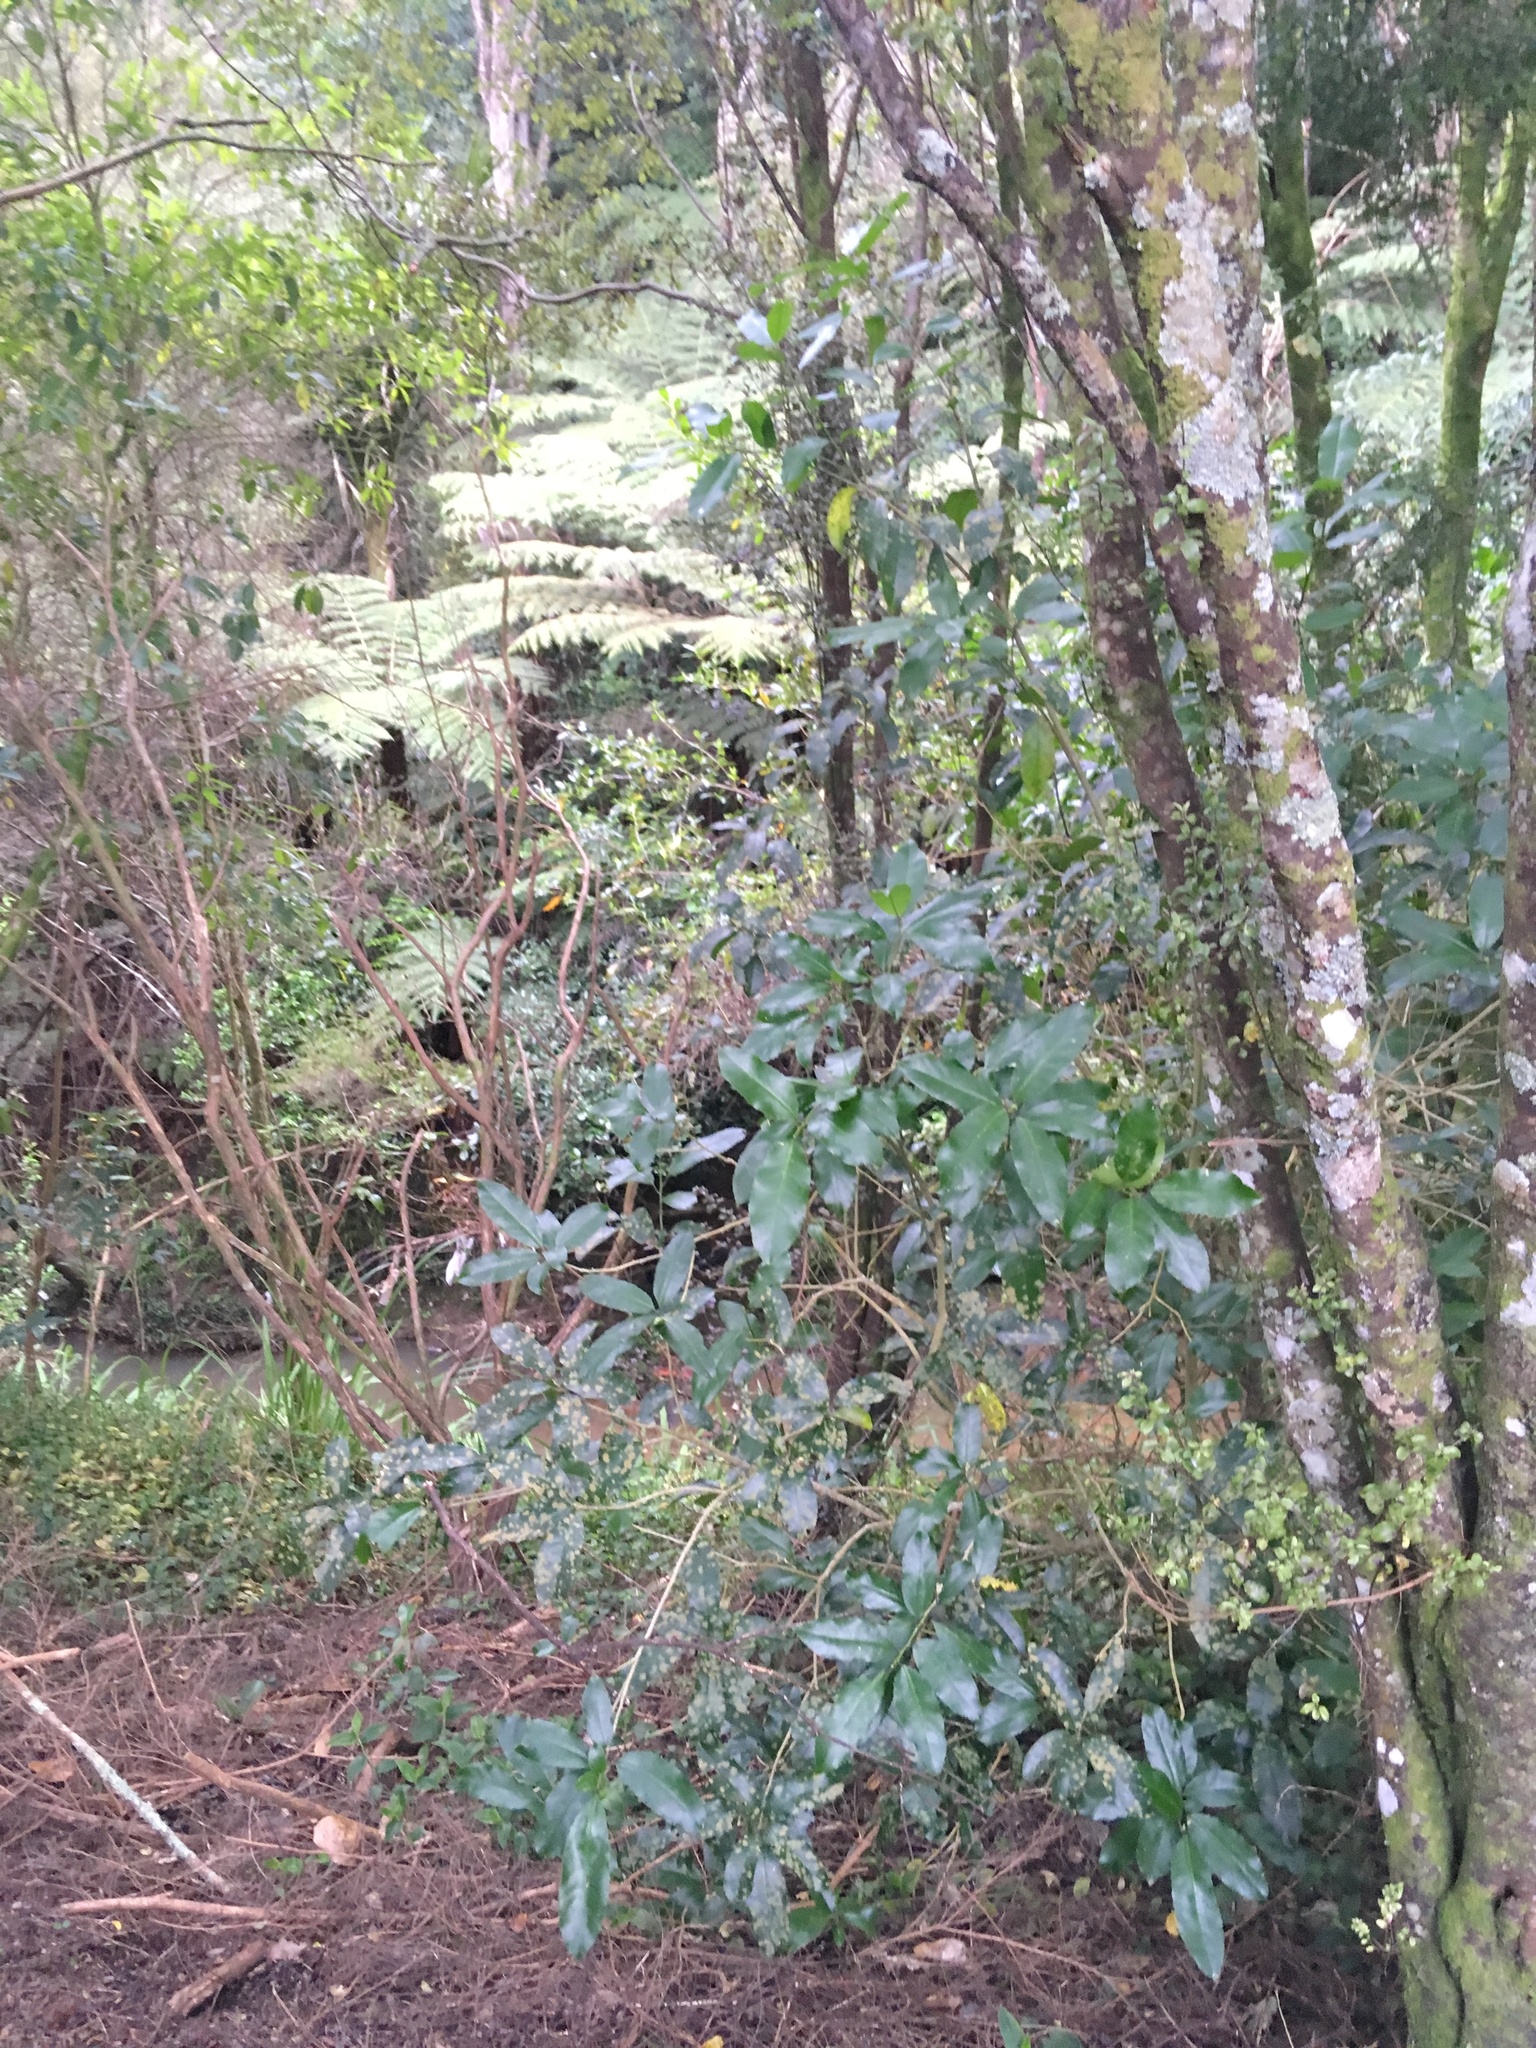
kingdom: Plantae
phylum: Tracheophyta
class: Magnoliopsida
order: Malpighiales
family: Violaceae
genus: Melicytus
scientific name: Melicytus ramiflorus
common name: Mahoe
